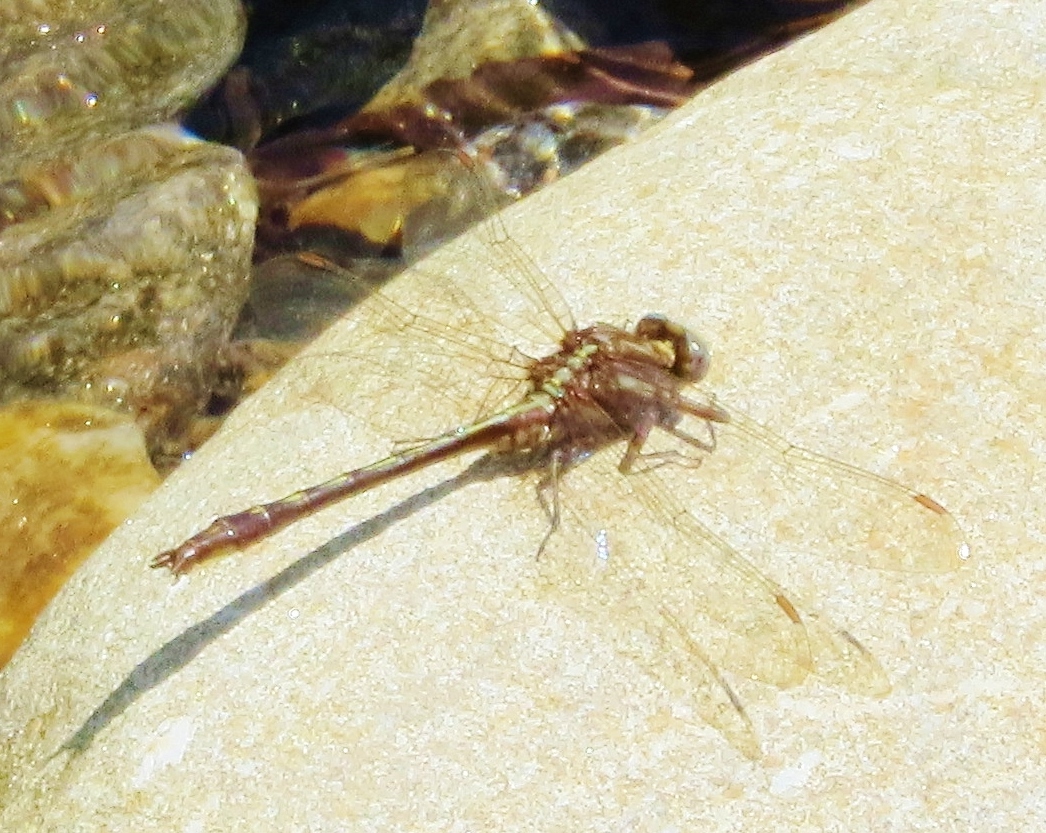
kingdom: Animalia
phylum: Arthropoda
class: Insecta
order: Odonata
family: Gomphidae
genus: Phanogomphus
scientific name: Phanogomphus lividus
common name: Ashy clubtail
